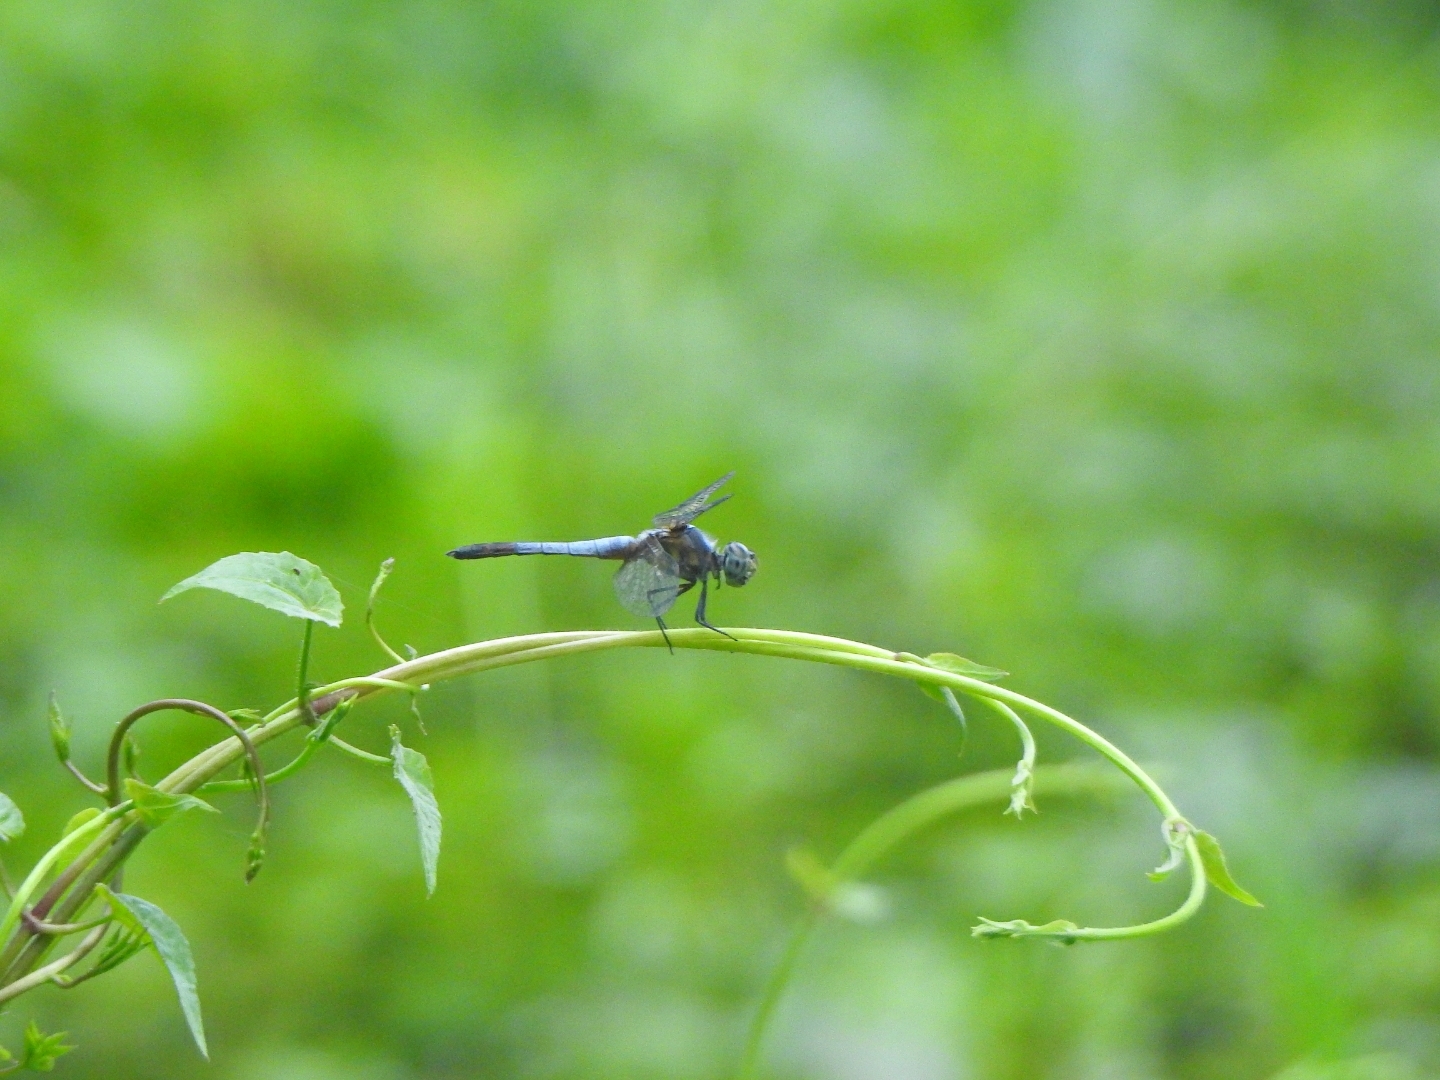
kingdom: Animalia
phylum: Arthropoda
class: Insecta
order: Odonata
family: Libellulidae
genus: Brachydiplax
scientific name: Brachydiplax chalybea
